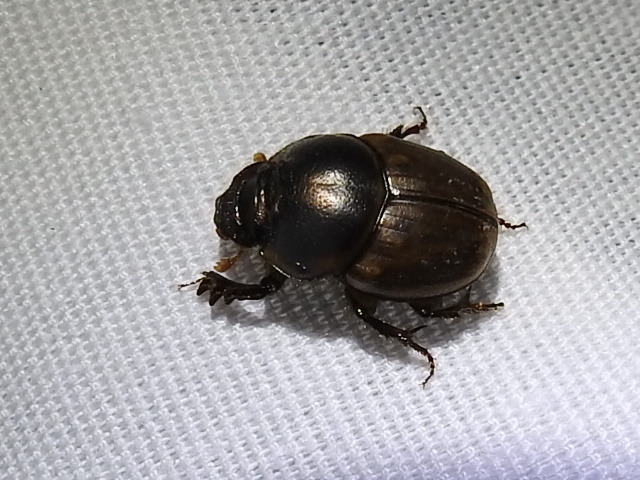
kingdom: Animalia
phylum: Arthropoda
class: Insecta
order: Coleoptera
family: Scarabaeidae
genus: Digitonthophagus
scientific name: Digitonthophagus gazella
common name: Brown dung beetle
